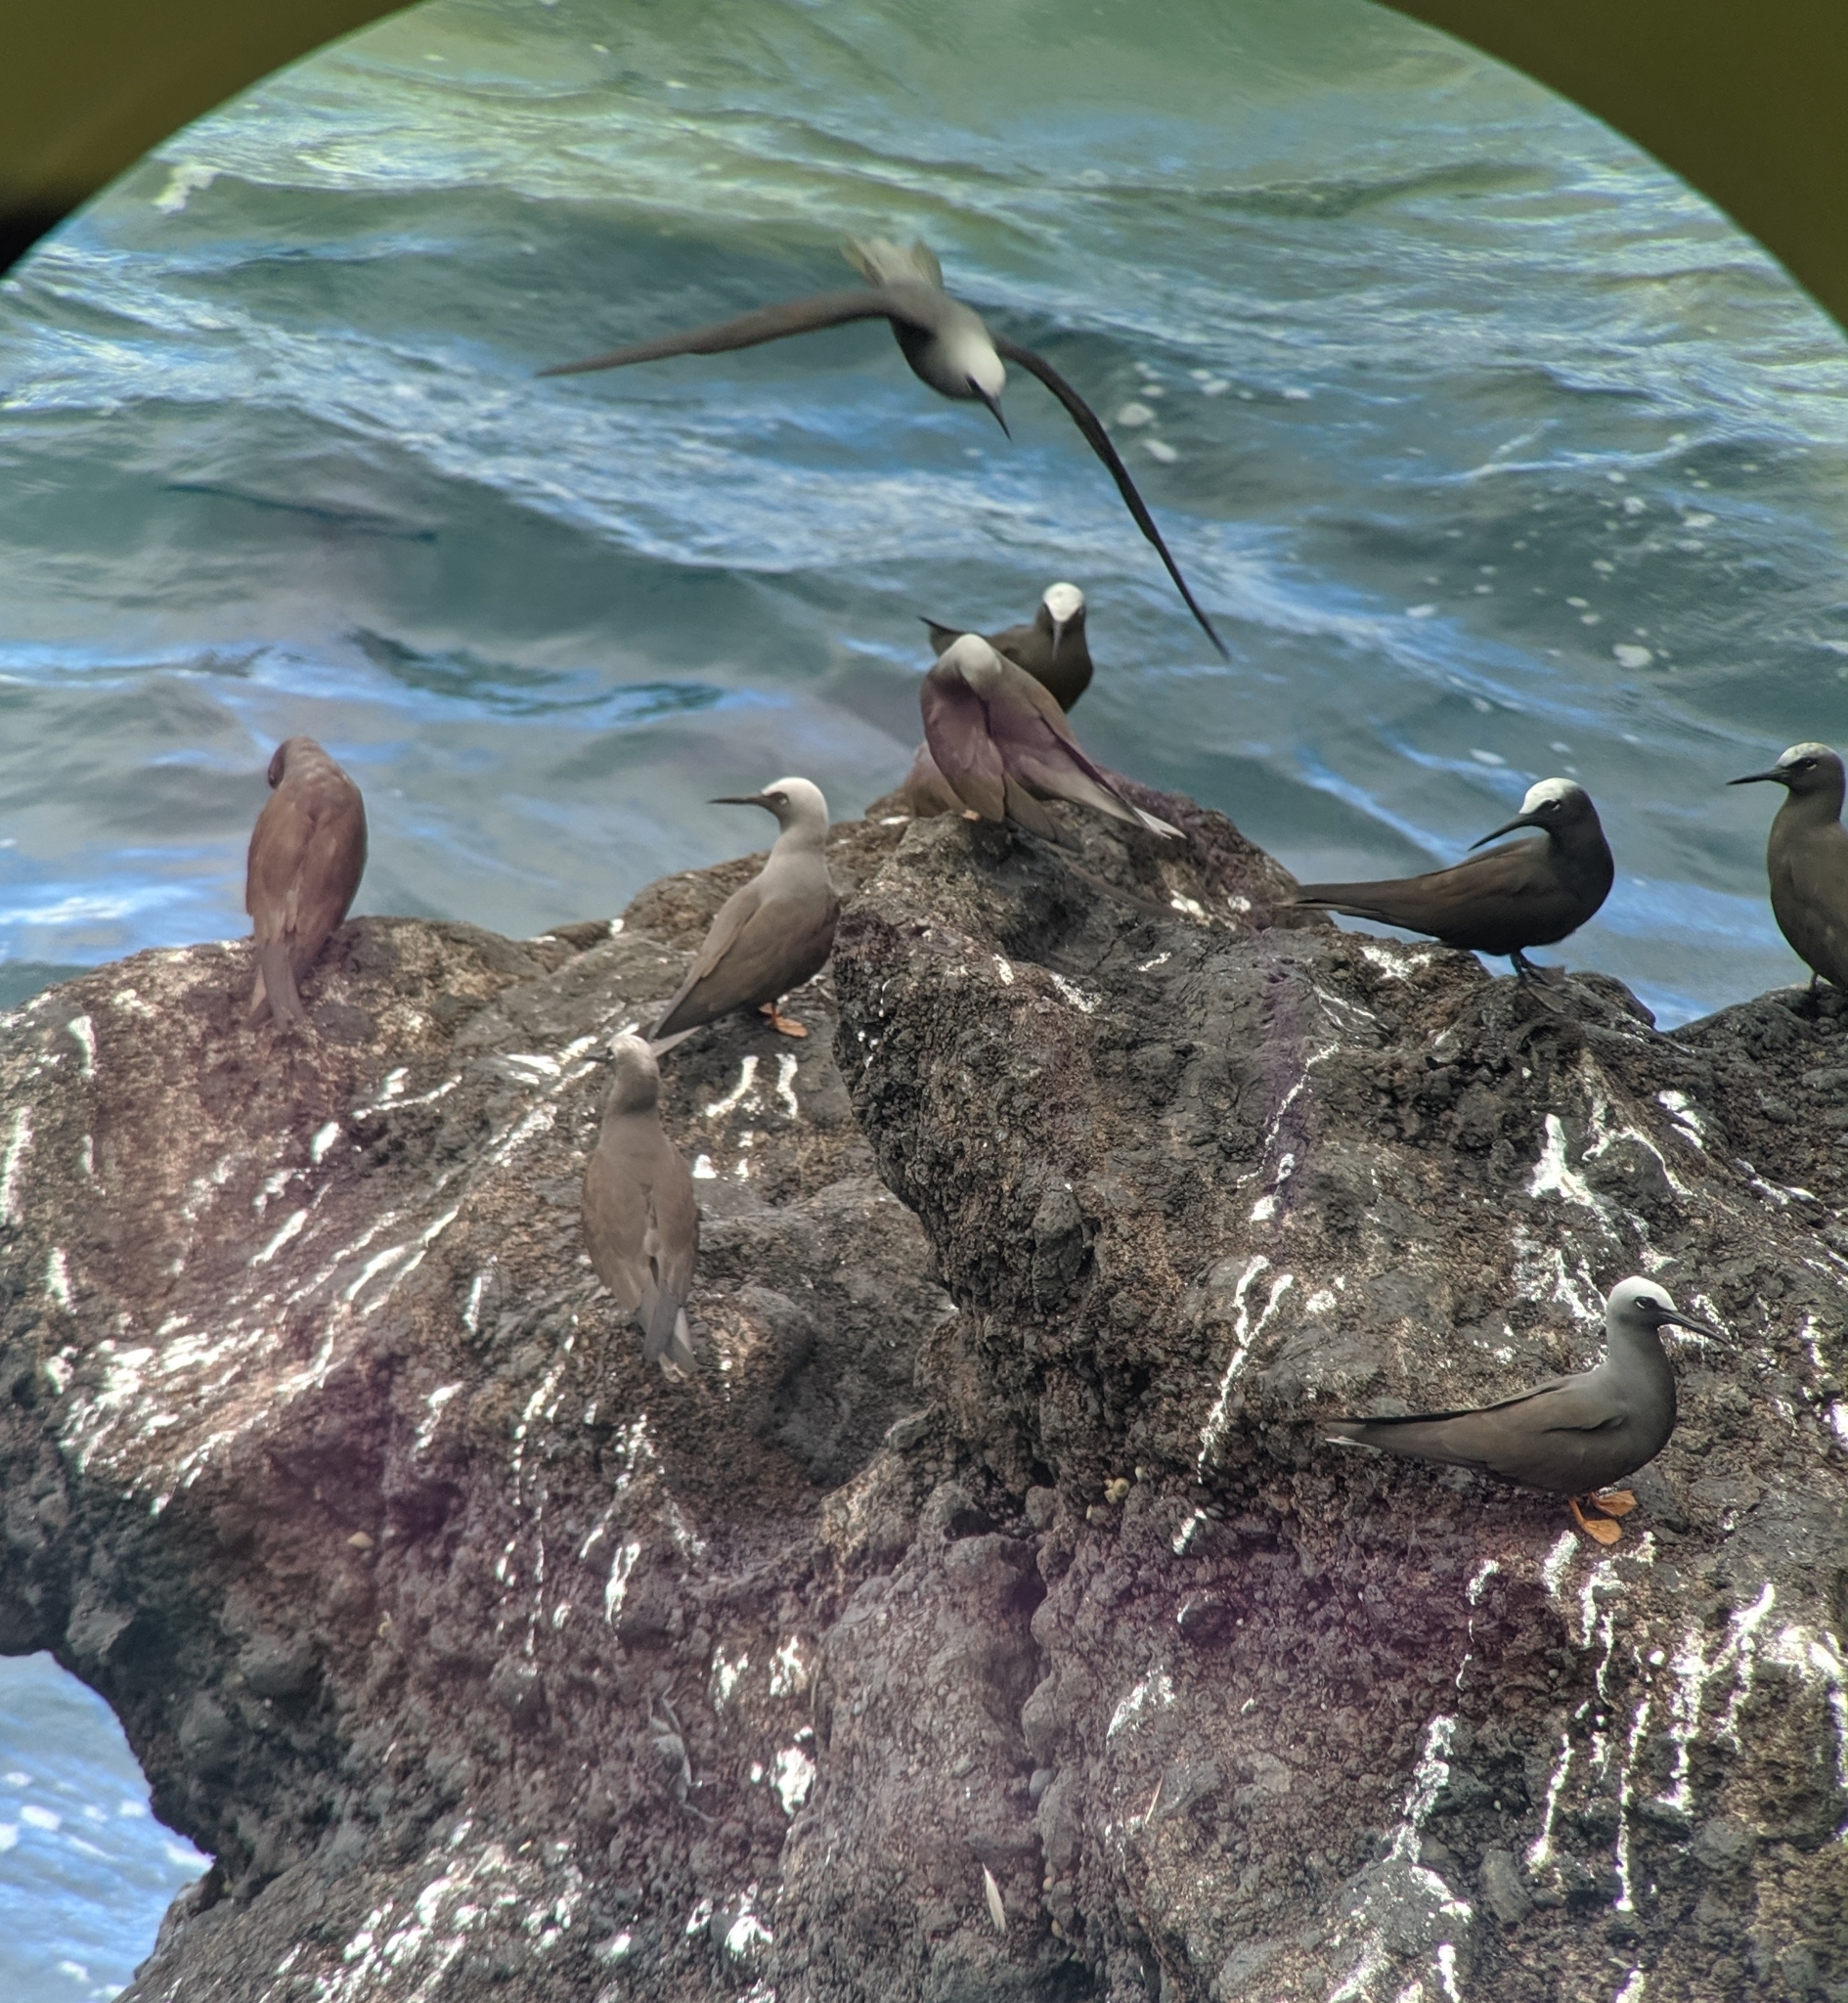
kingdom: Animalia
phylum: Chordata
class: Aves
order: Charadriiformes
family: Laridae
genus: Anous
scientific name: Anous minutus
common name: Black noddy
